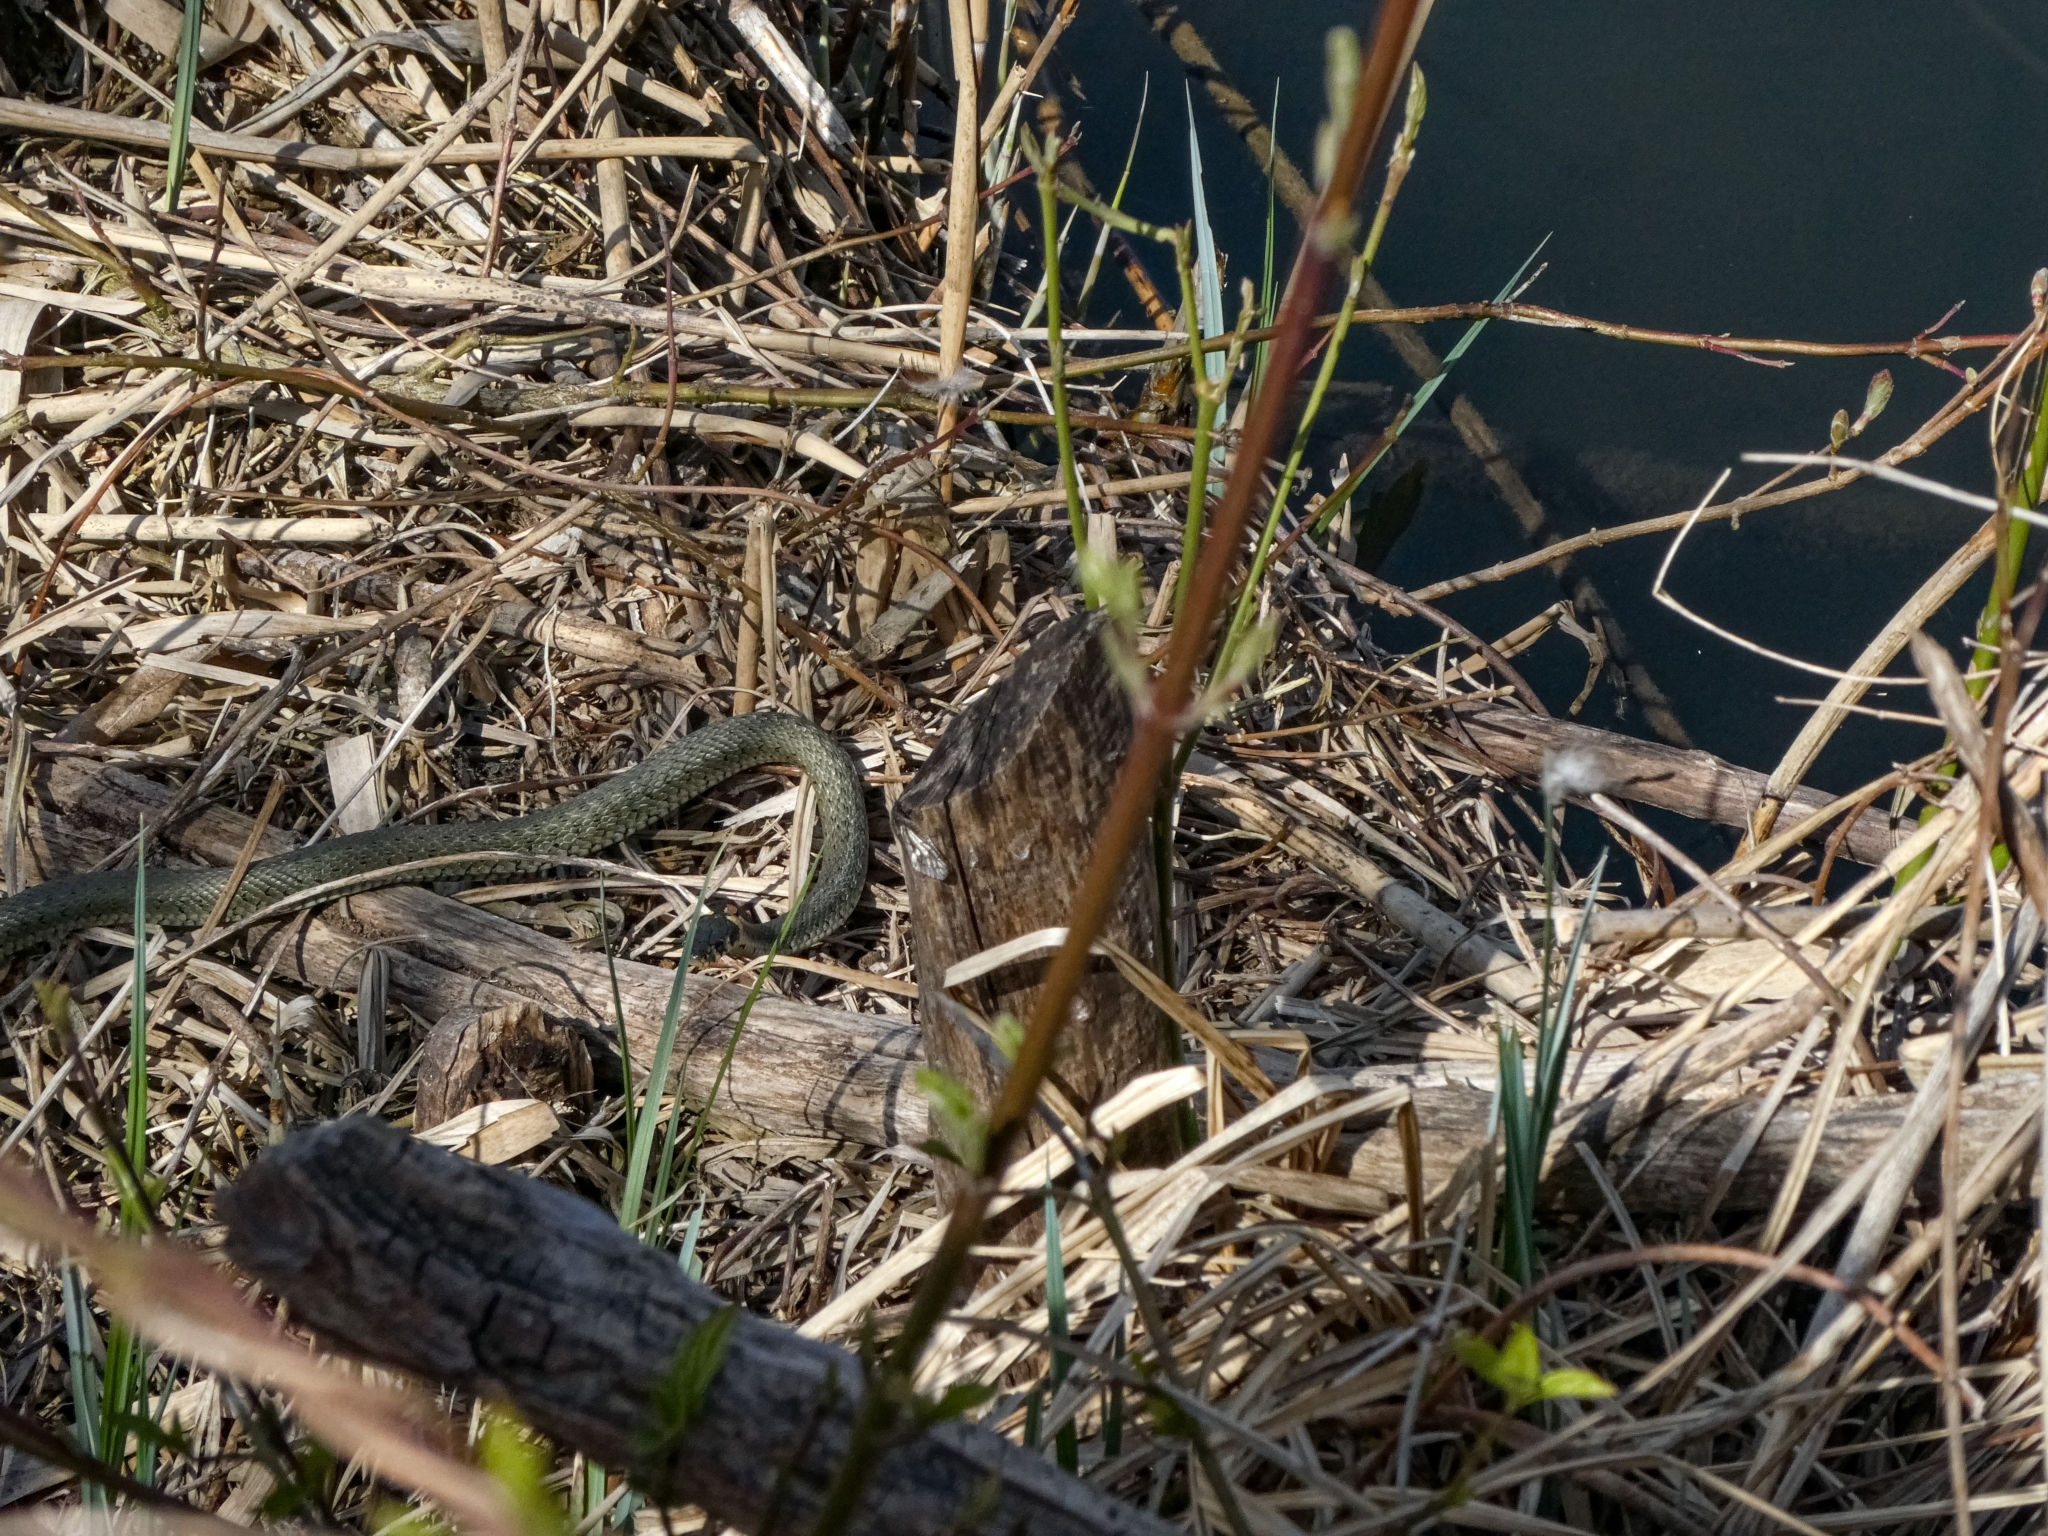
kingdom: Animalia
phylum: Chordata
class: Squamata
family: Colubridae
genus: Natrix
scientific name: Natrix natrix
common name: Grass snake
